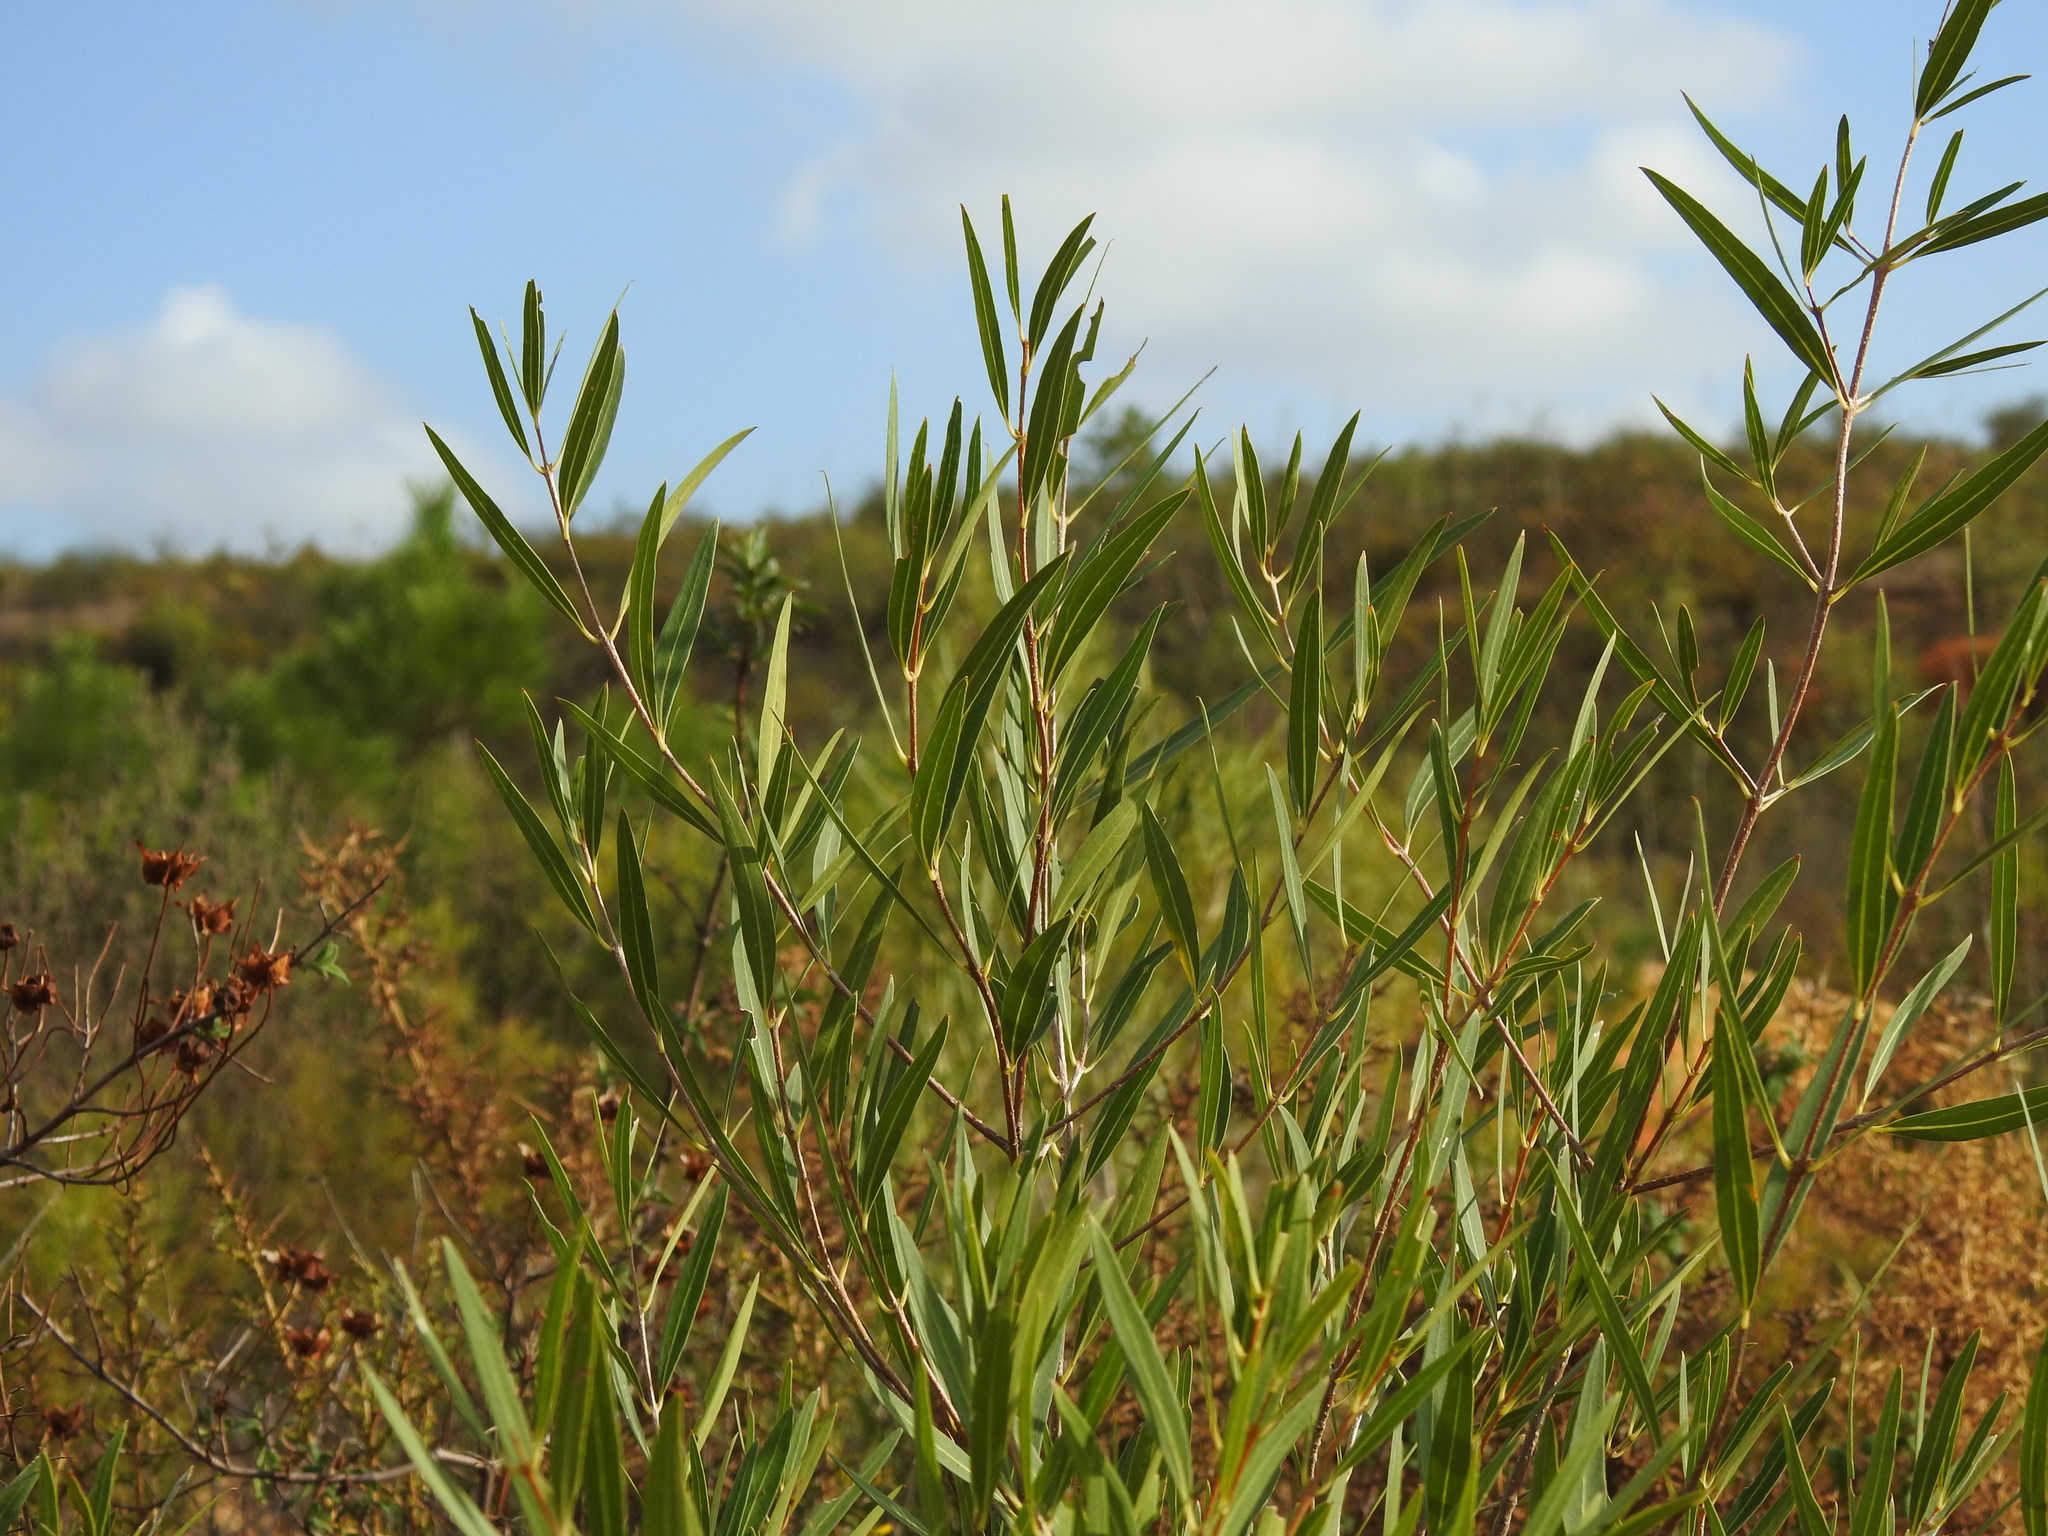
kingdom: Plantae
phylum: Tracheophyta
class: Magnoliopsida
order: Lamiales
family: Oleaceae
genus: Phillyrea
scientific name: Phillyrea angustifolia
